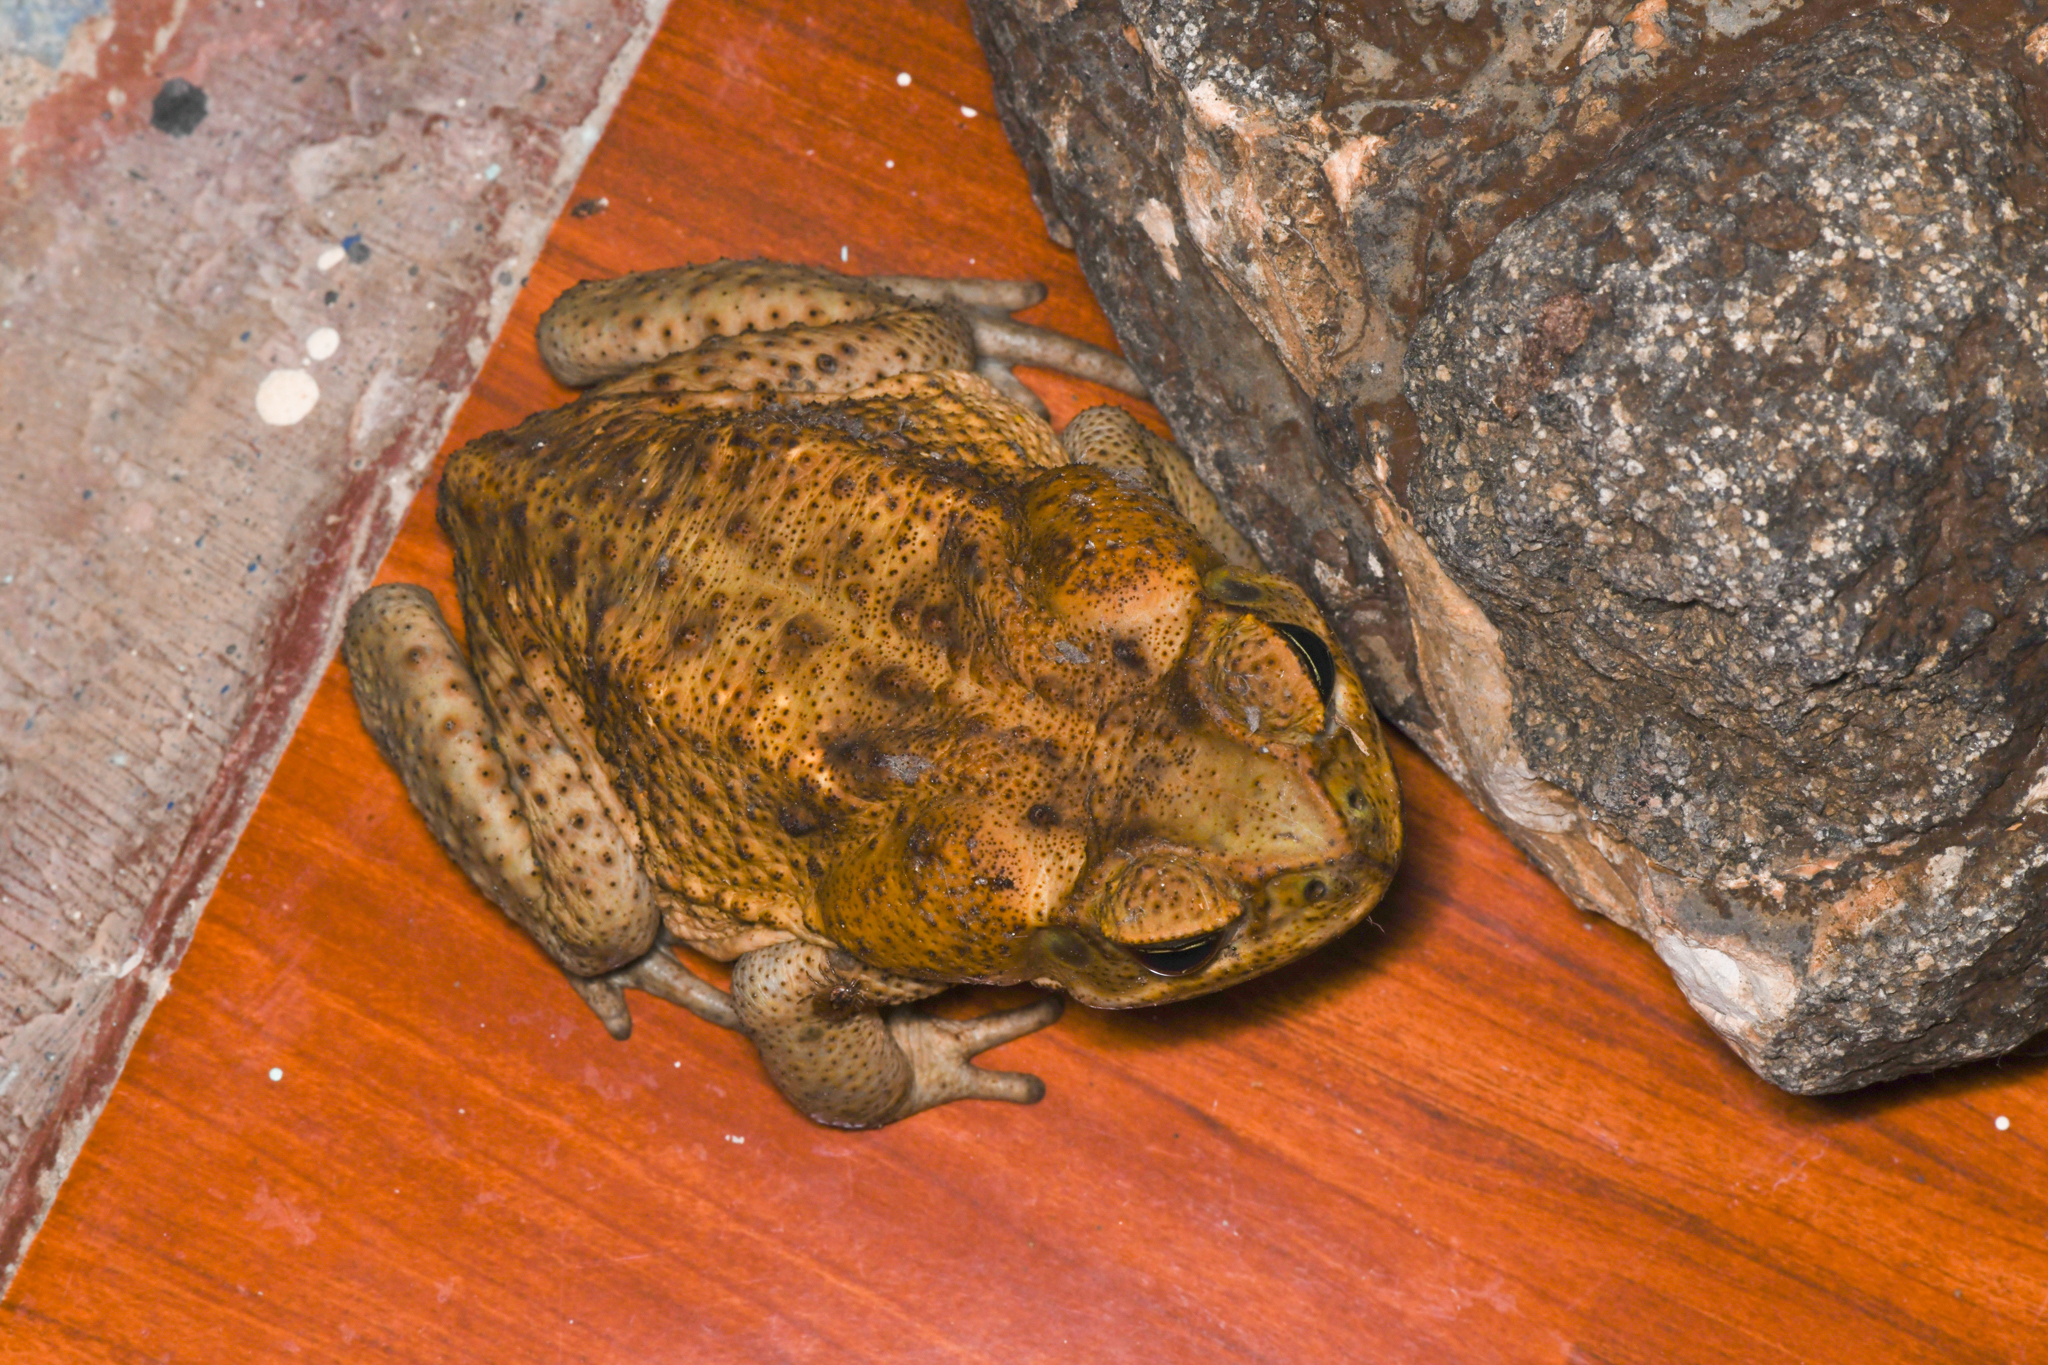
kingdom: Animalia
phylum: Chordata
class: Amphibia
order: Anura
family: Bufonidae
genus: Rhinella
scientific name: Rhinella horribilis
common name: Mesoamerican cane toad
